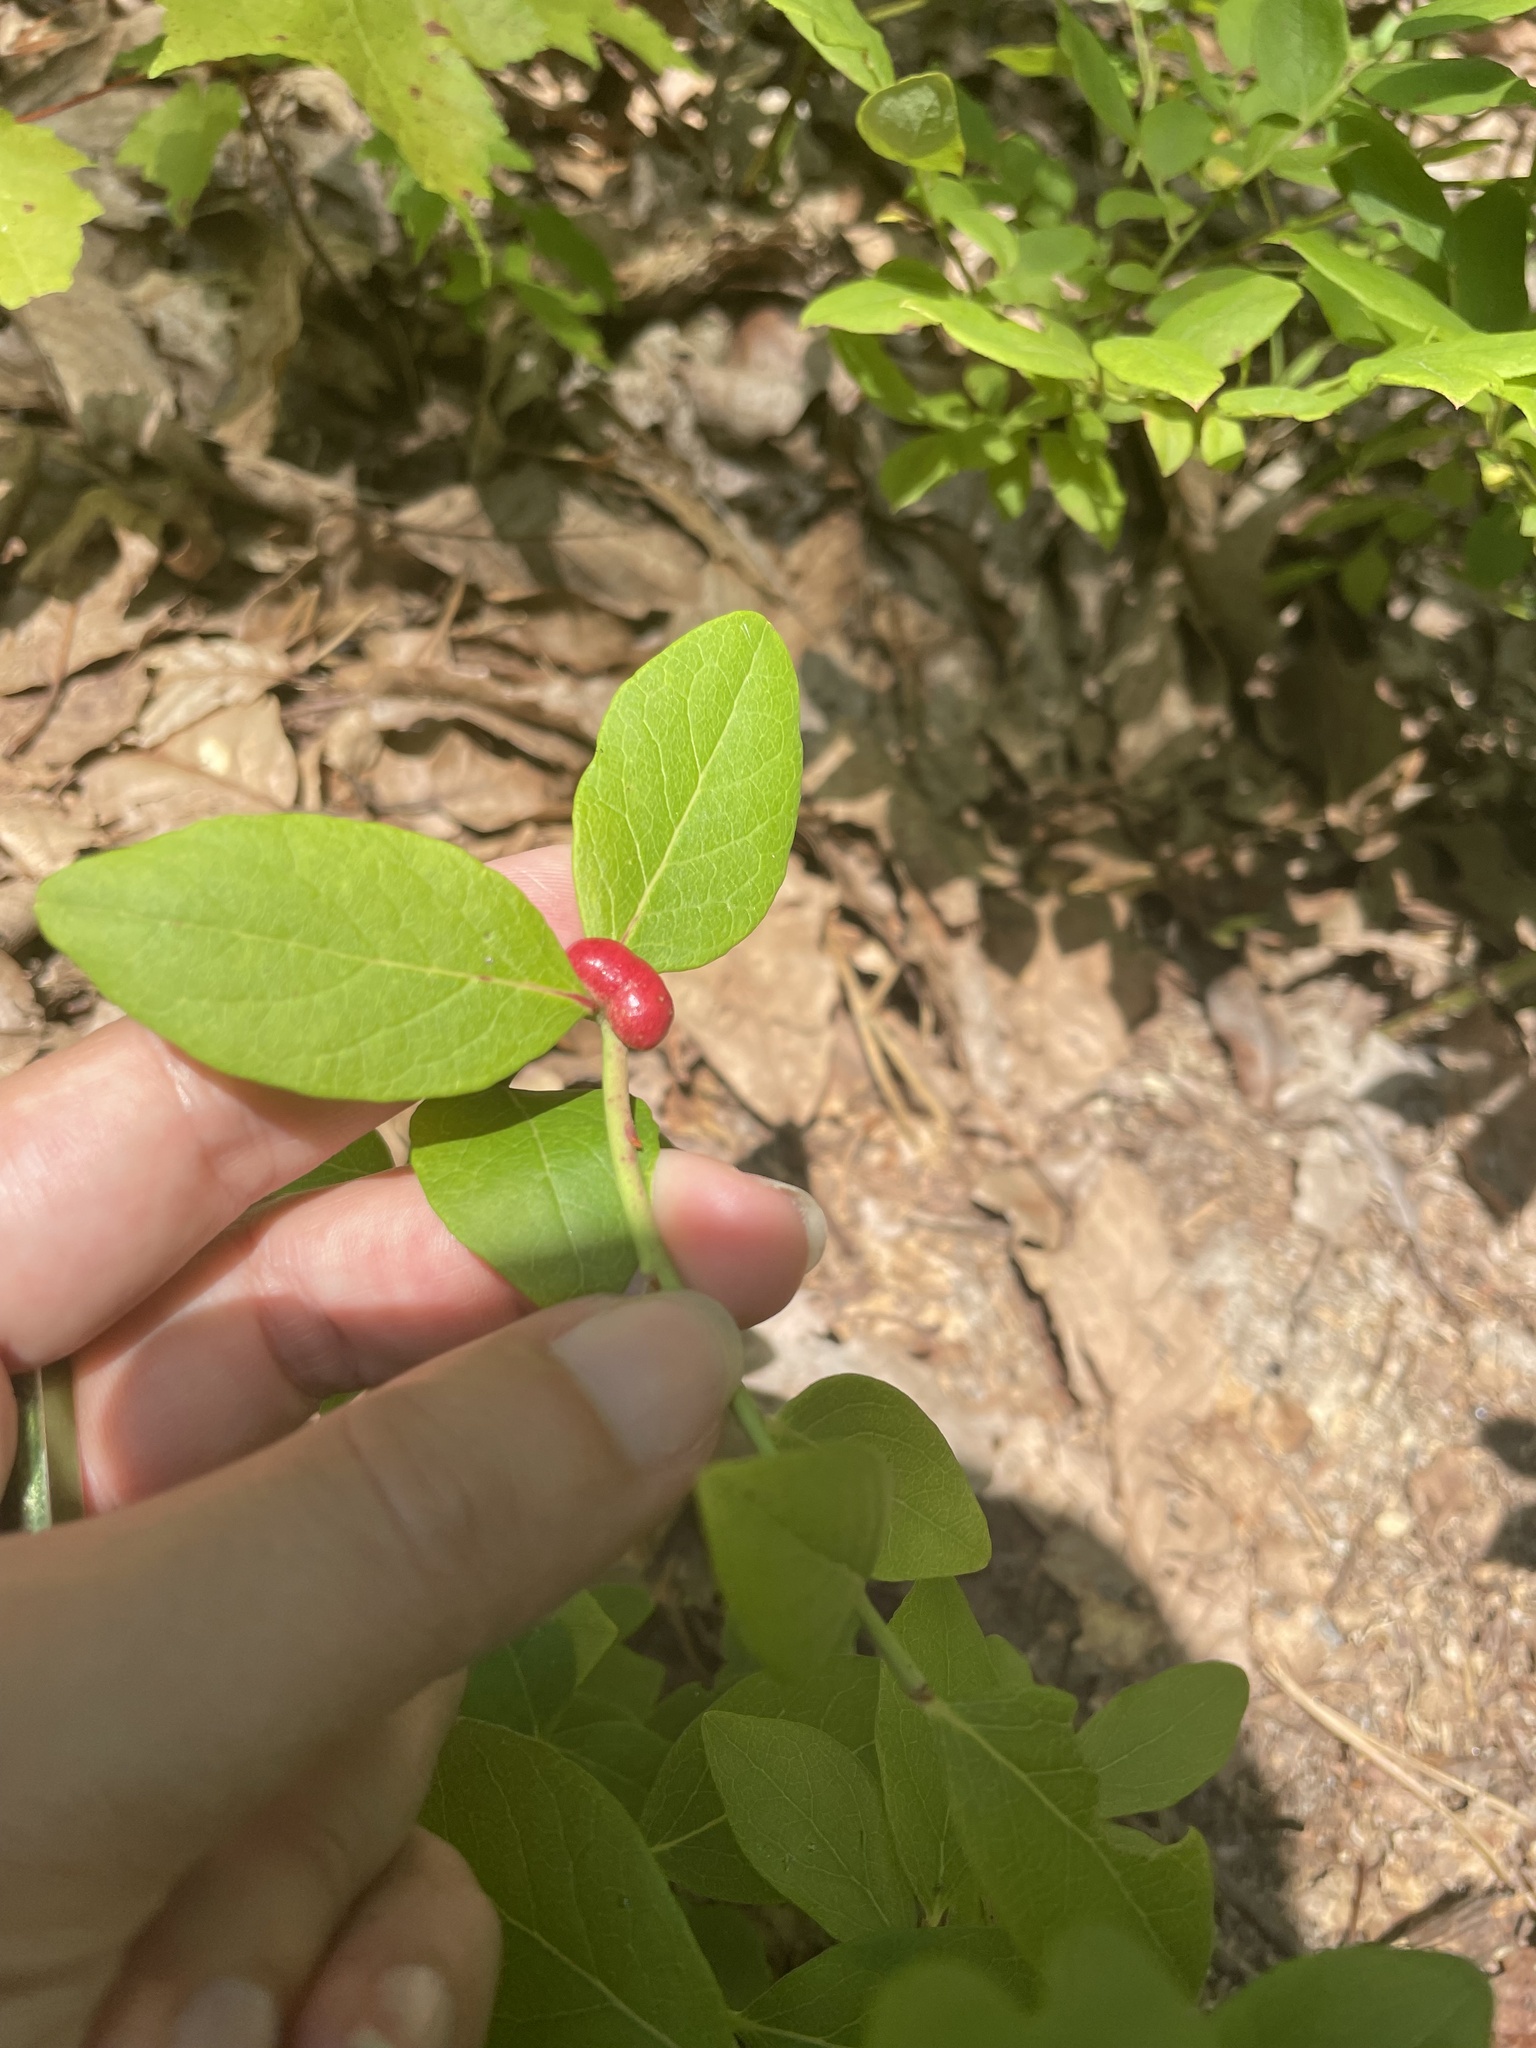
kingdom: Animalia
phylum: Arthropoda
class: Insecta
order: Hymenoptera
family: Pteromalidae
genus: Hemadas
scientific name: Hemadas nubilipennis
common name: Blueberry stem gall wasp
